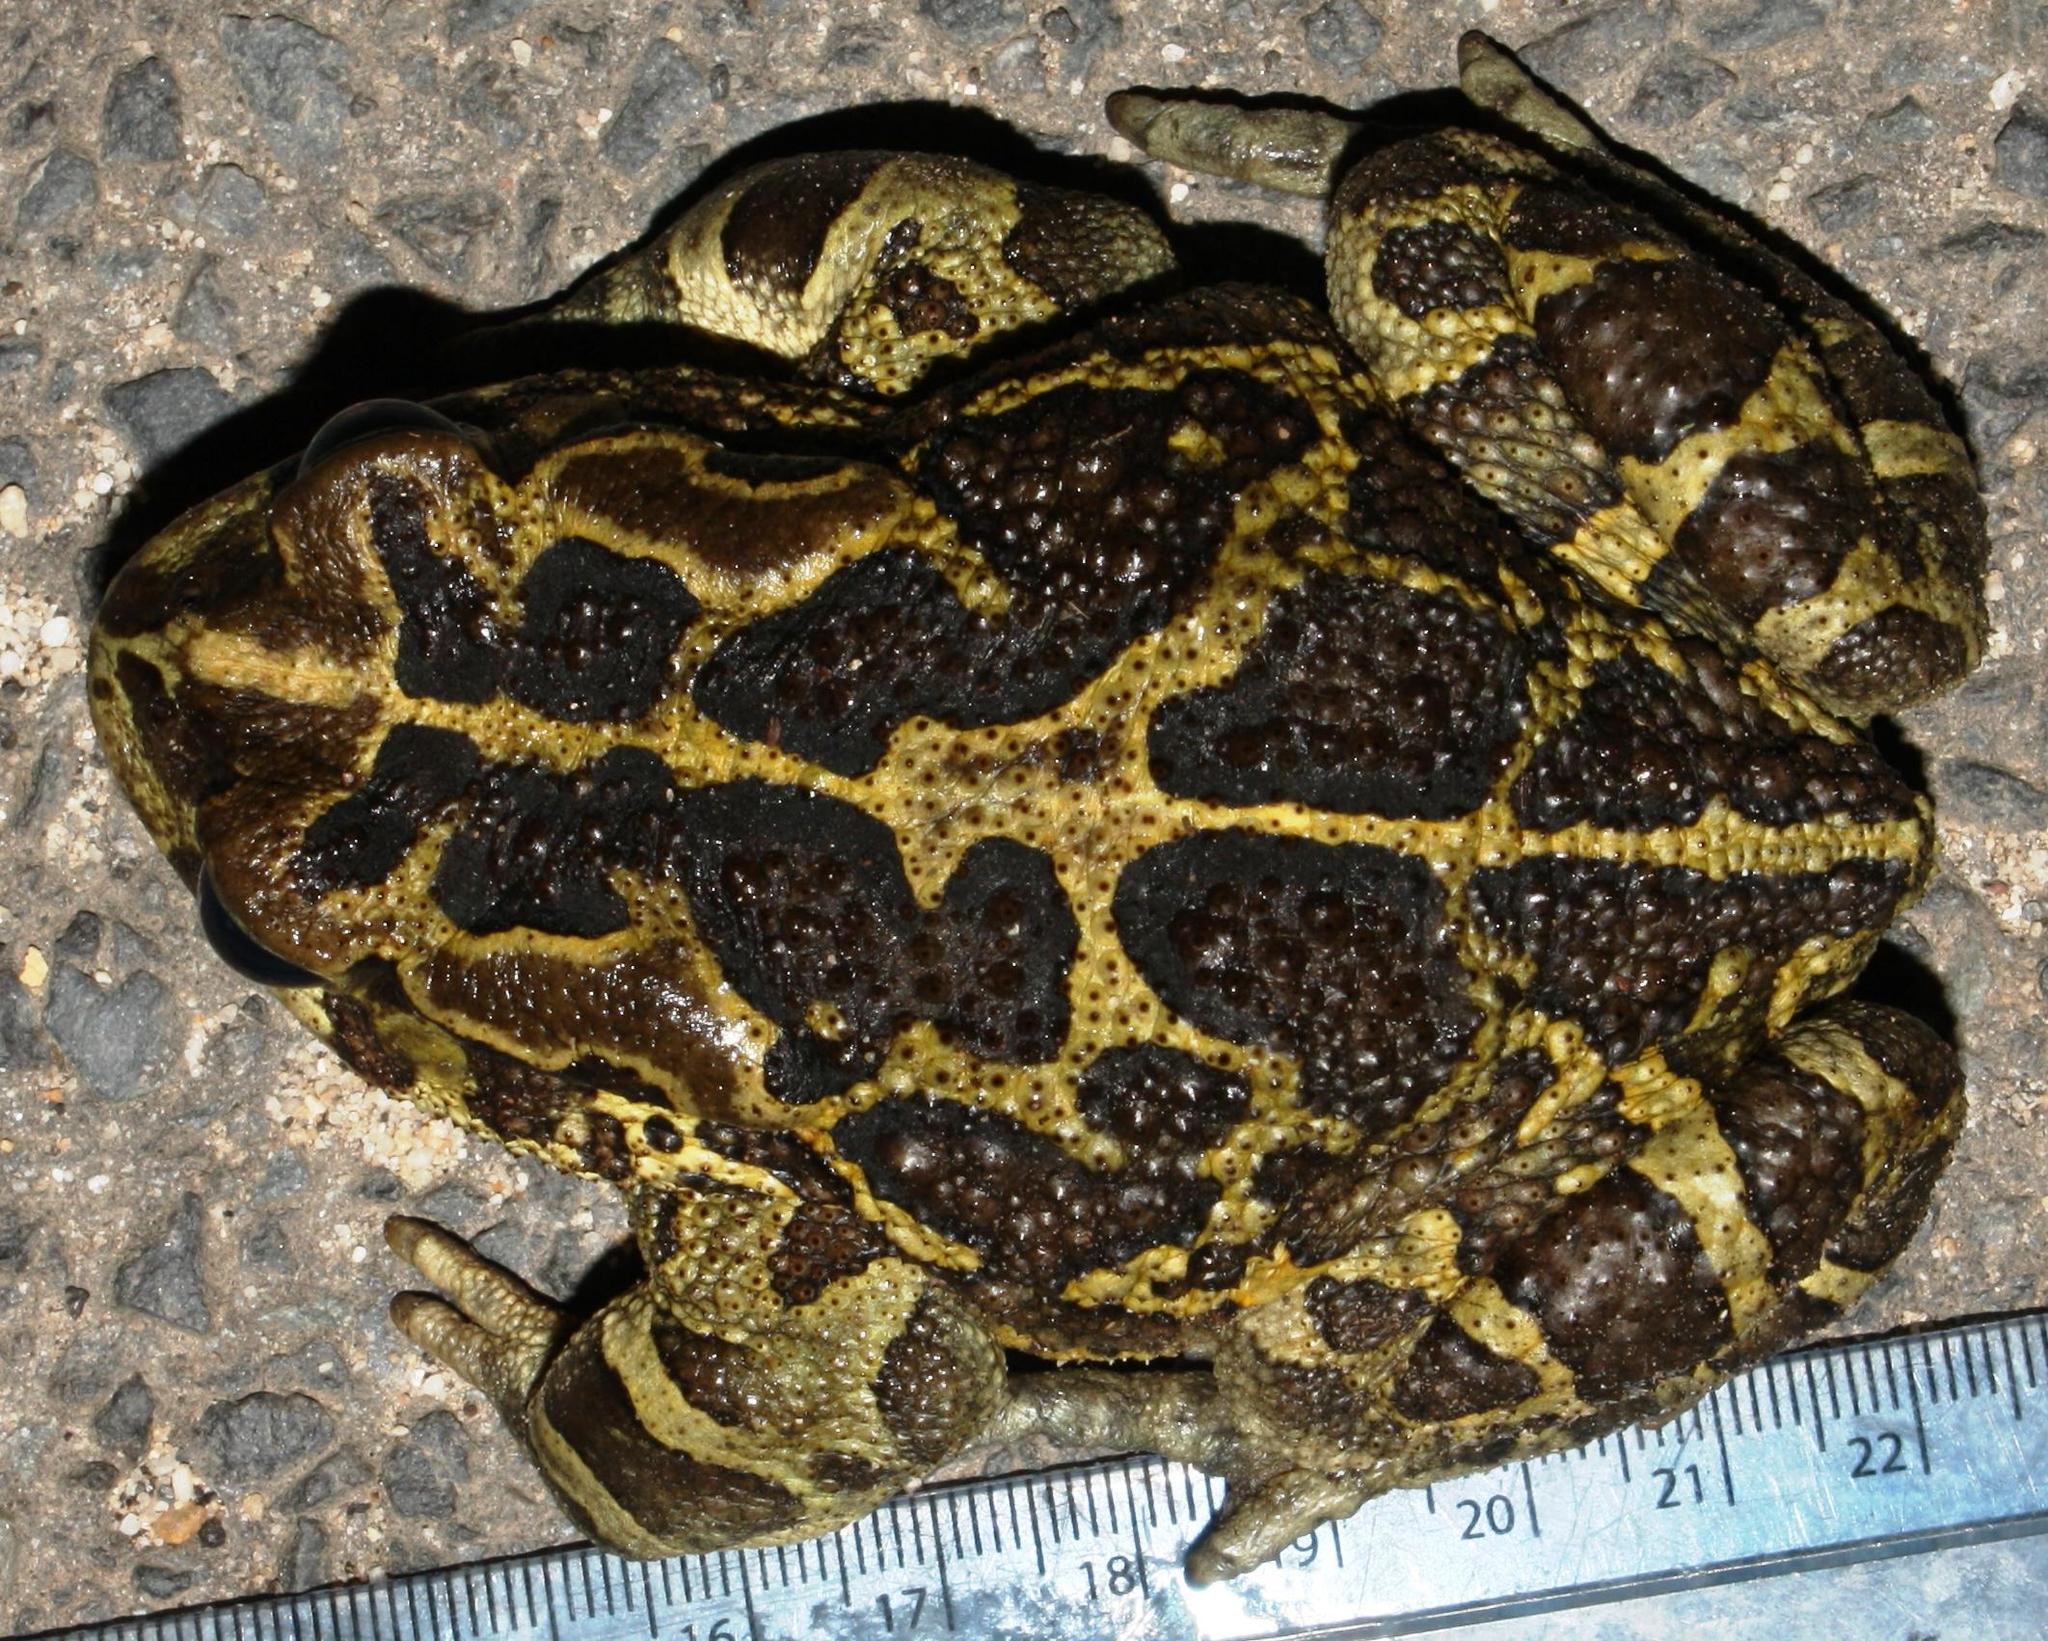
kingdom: Animalia
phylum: Chordata
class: Amphibia
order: Anura
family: Bufonidae
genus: Sclerophrys
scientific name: Sclerophrys pantherina
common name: Panther toad
